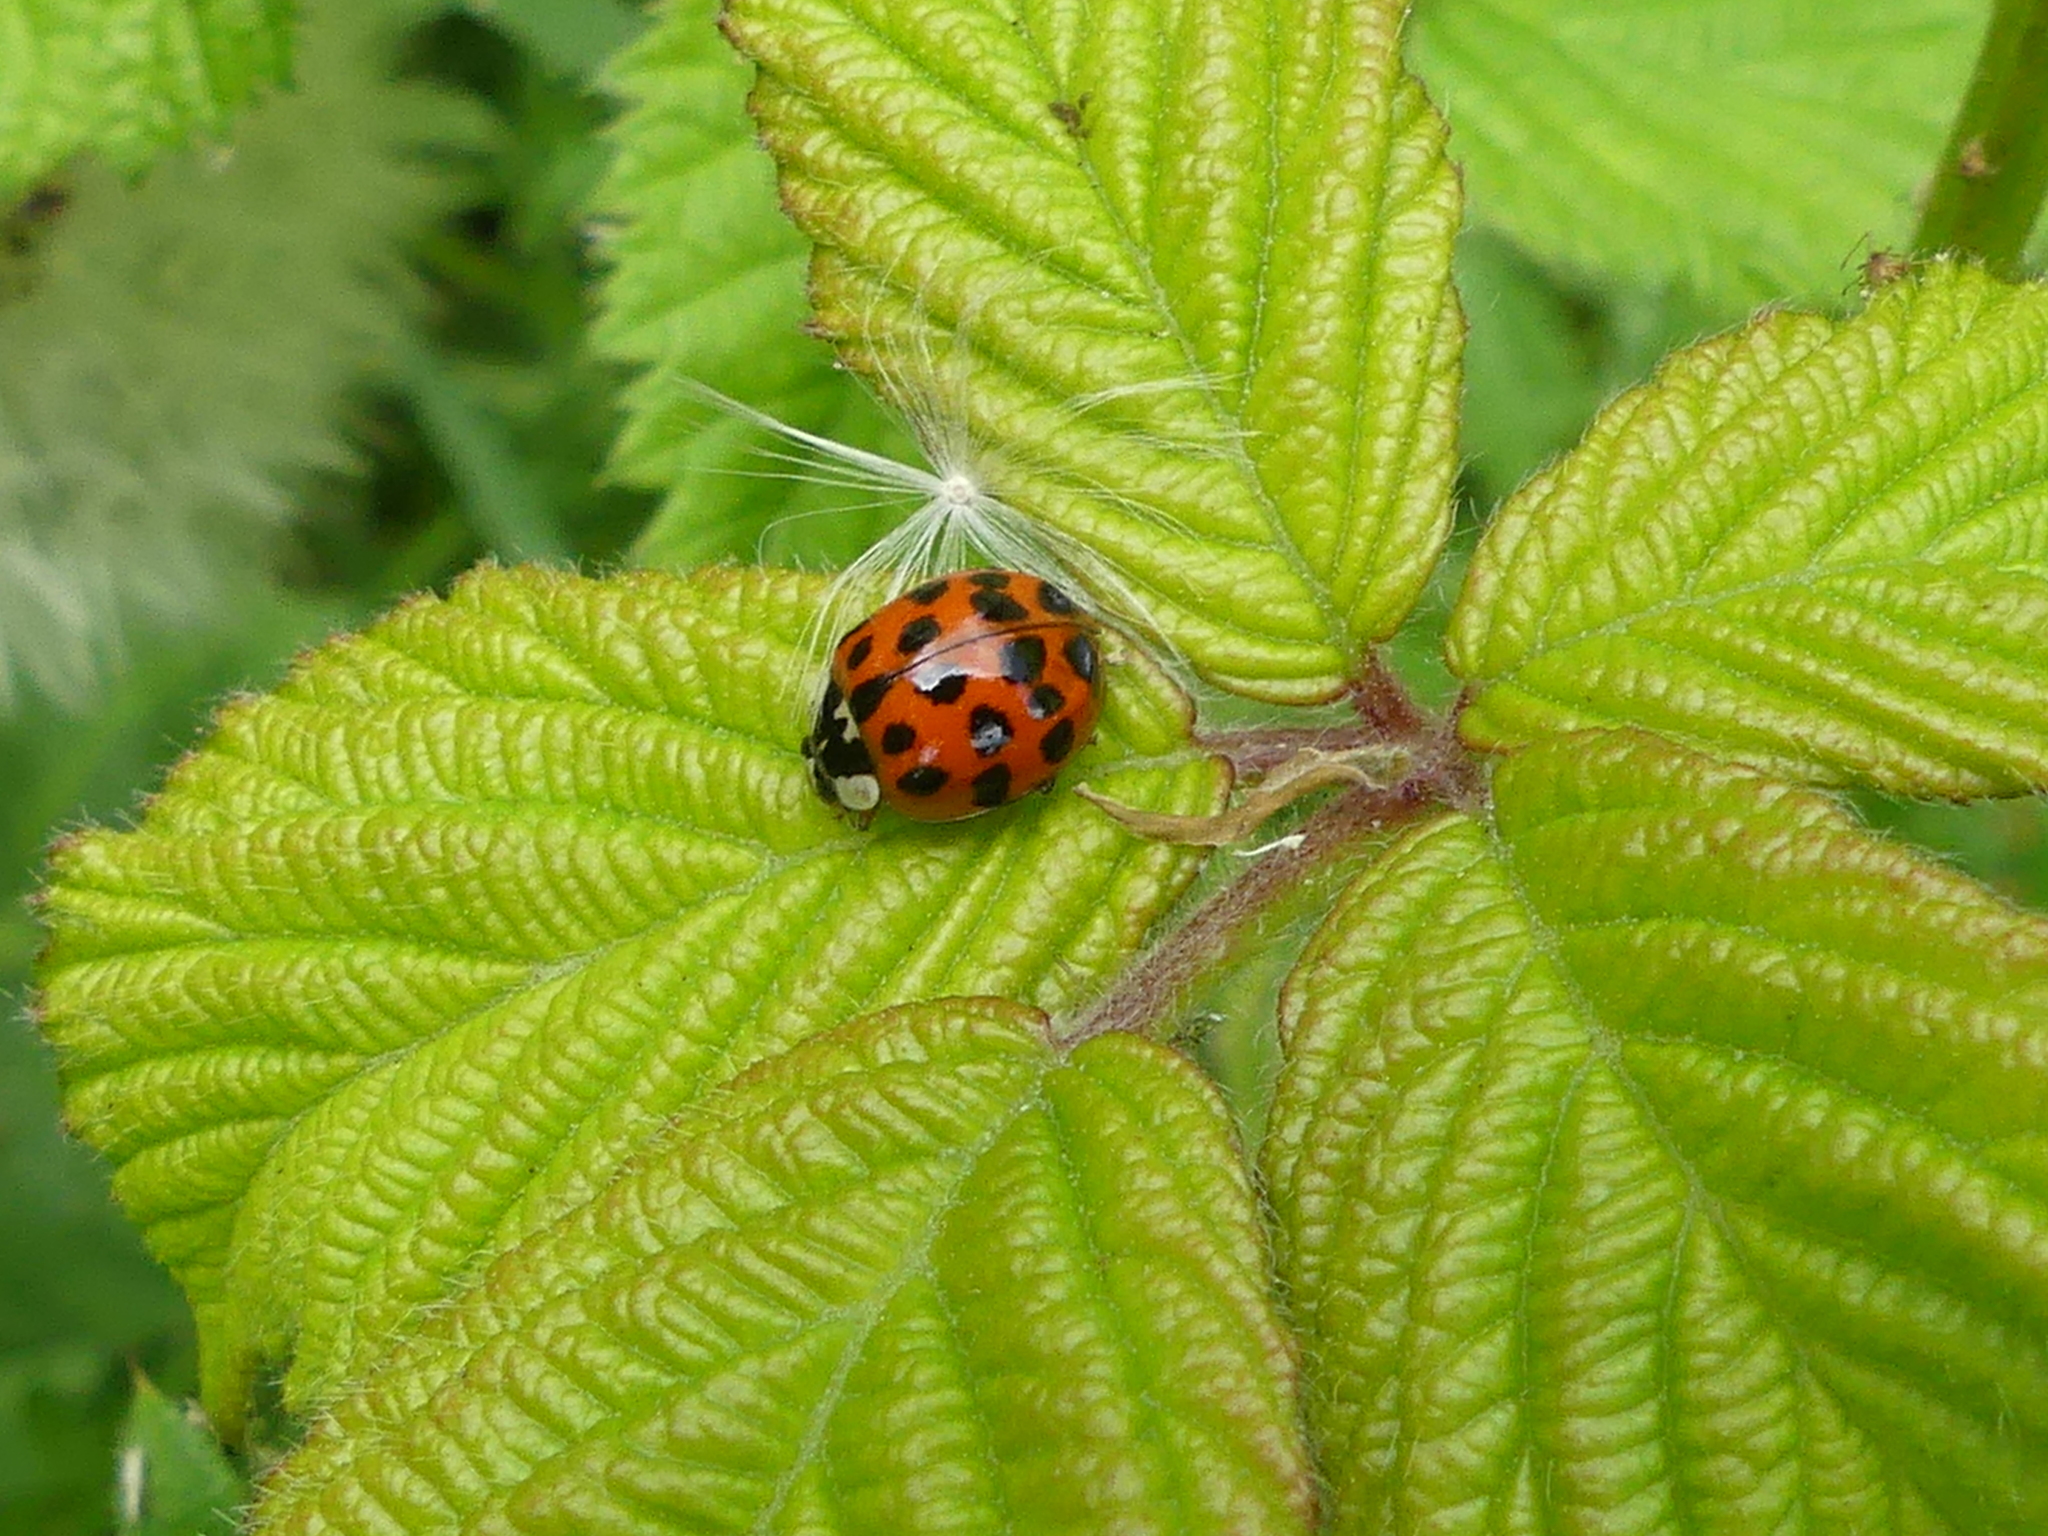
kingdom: Animalia
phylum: Arthropoda
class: Insecta
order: Coleoptera
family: Coccinellidae
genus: Harmonia
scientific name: Harmonia axyridis
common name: Harlequin ladybird
